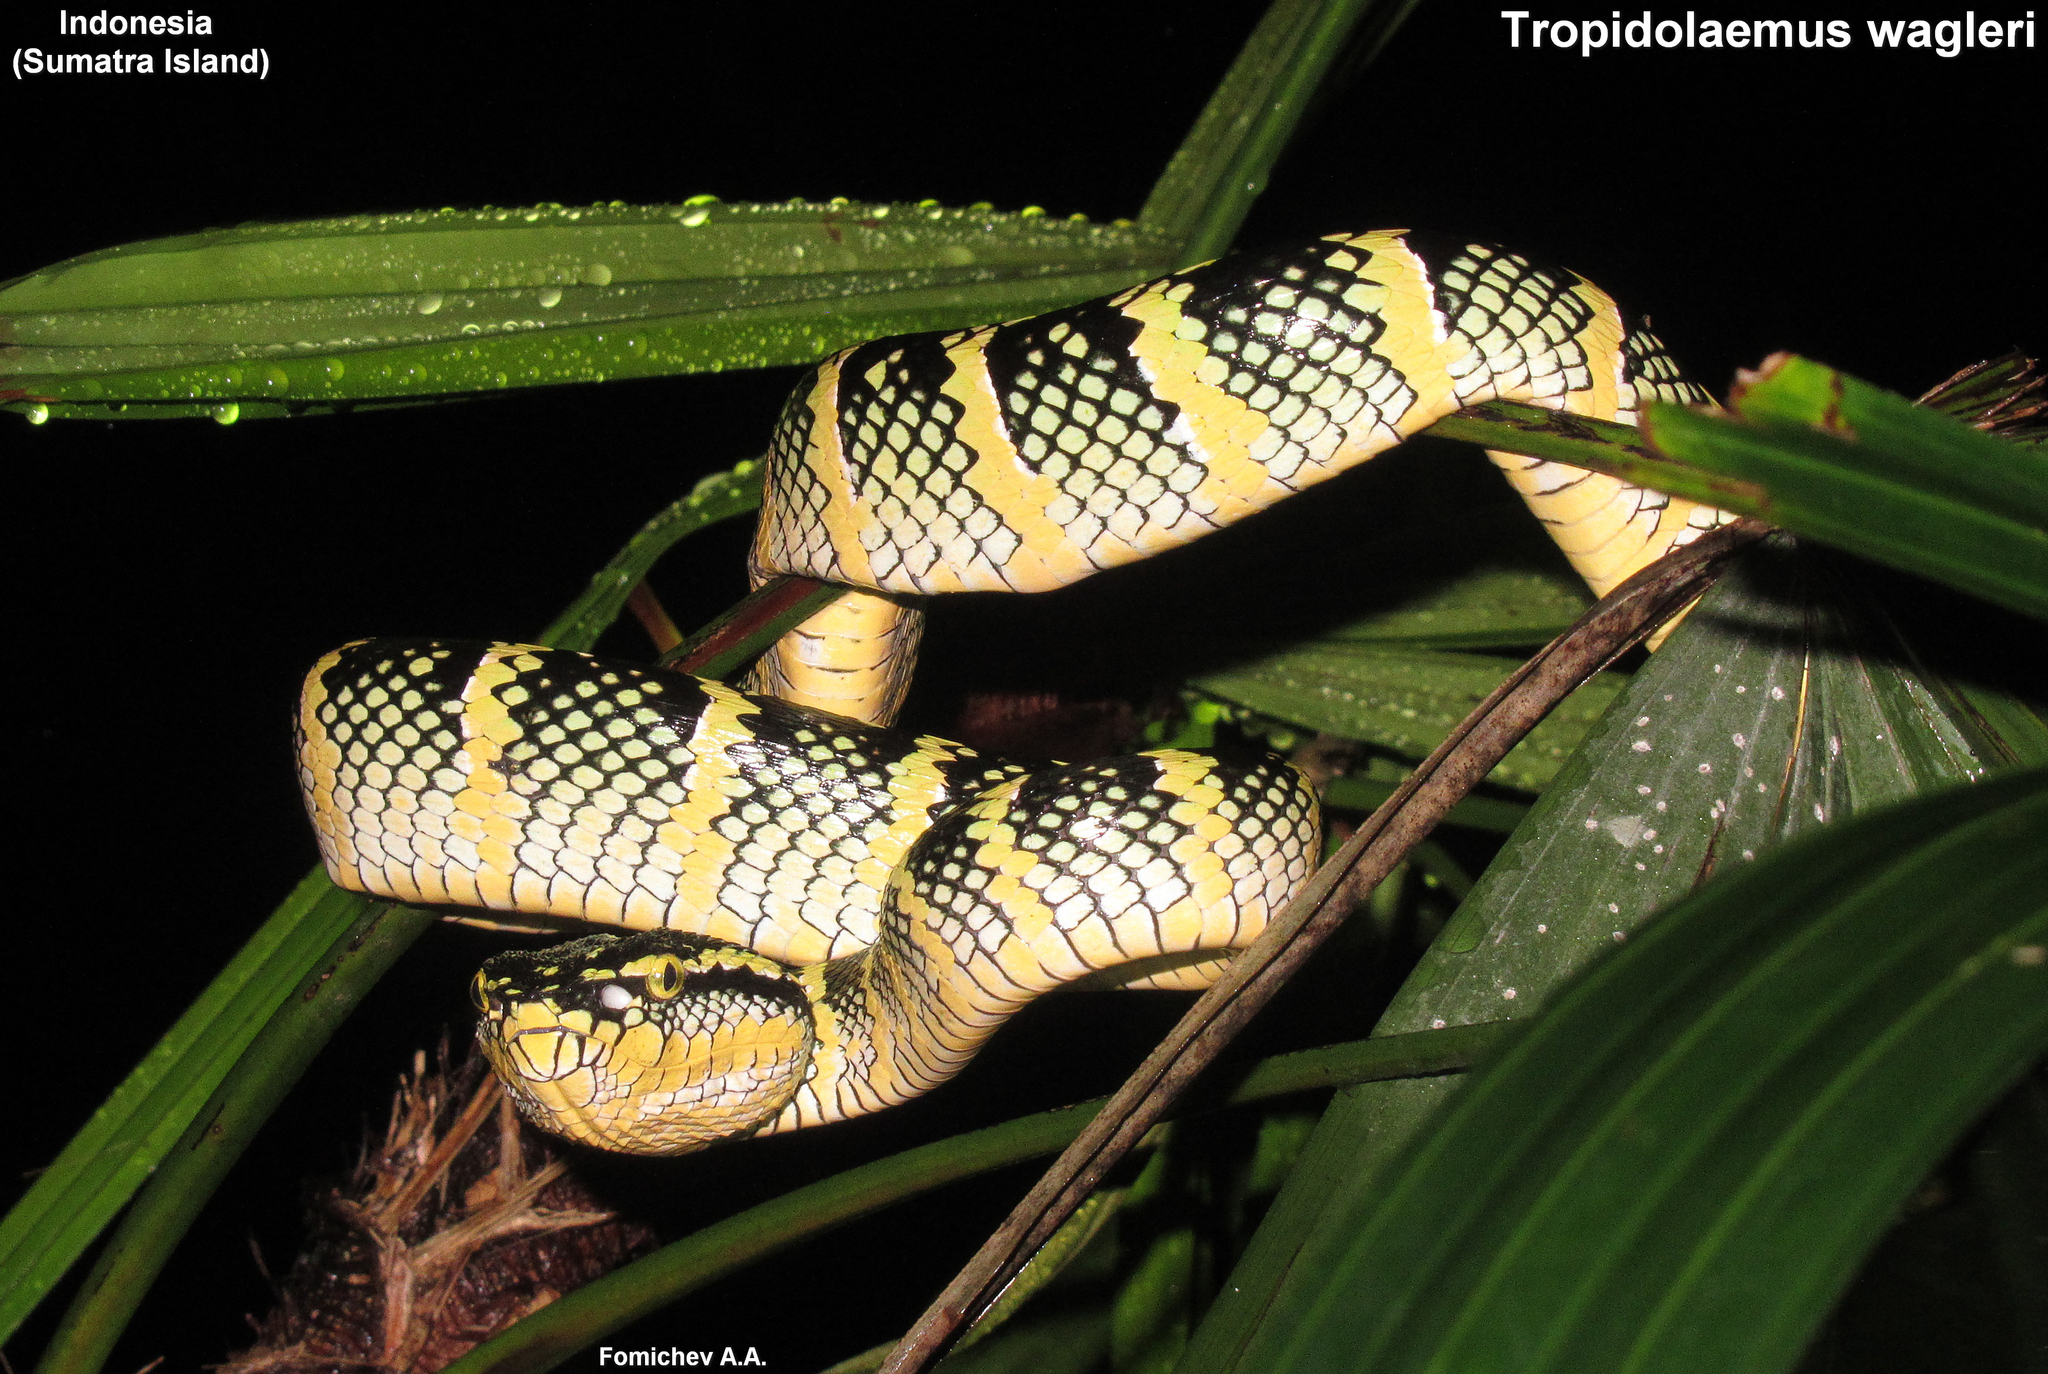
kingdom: Animalia
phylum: Chordata
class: Squamata
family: Viperidae
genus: Tropidolaemus
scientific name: Tropidolaemus wagleri
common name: Wagler's palm viper
